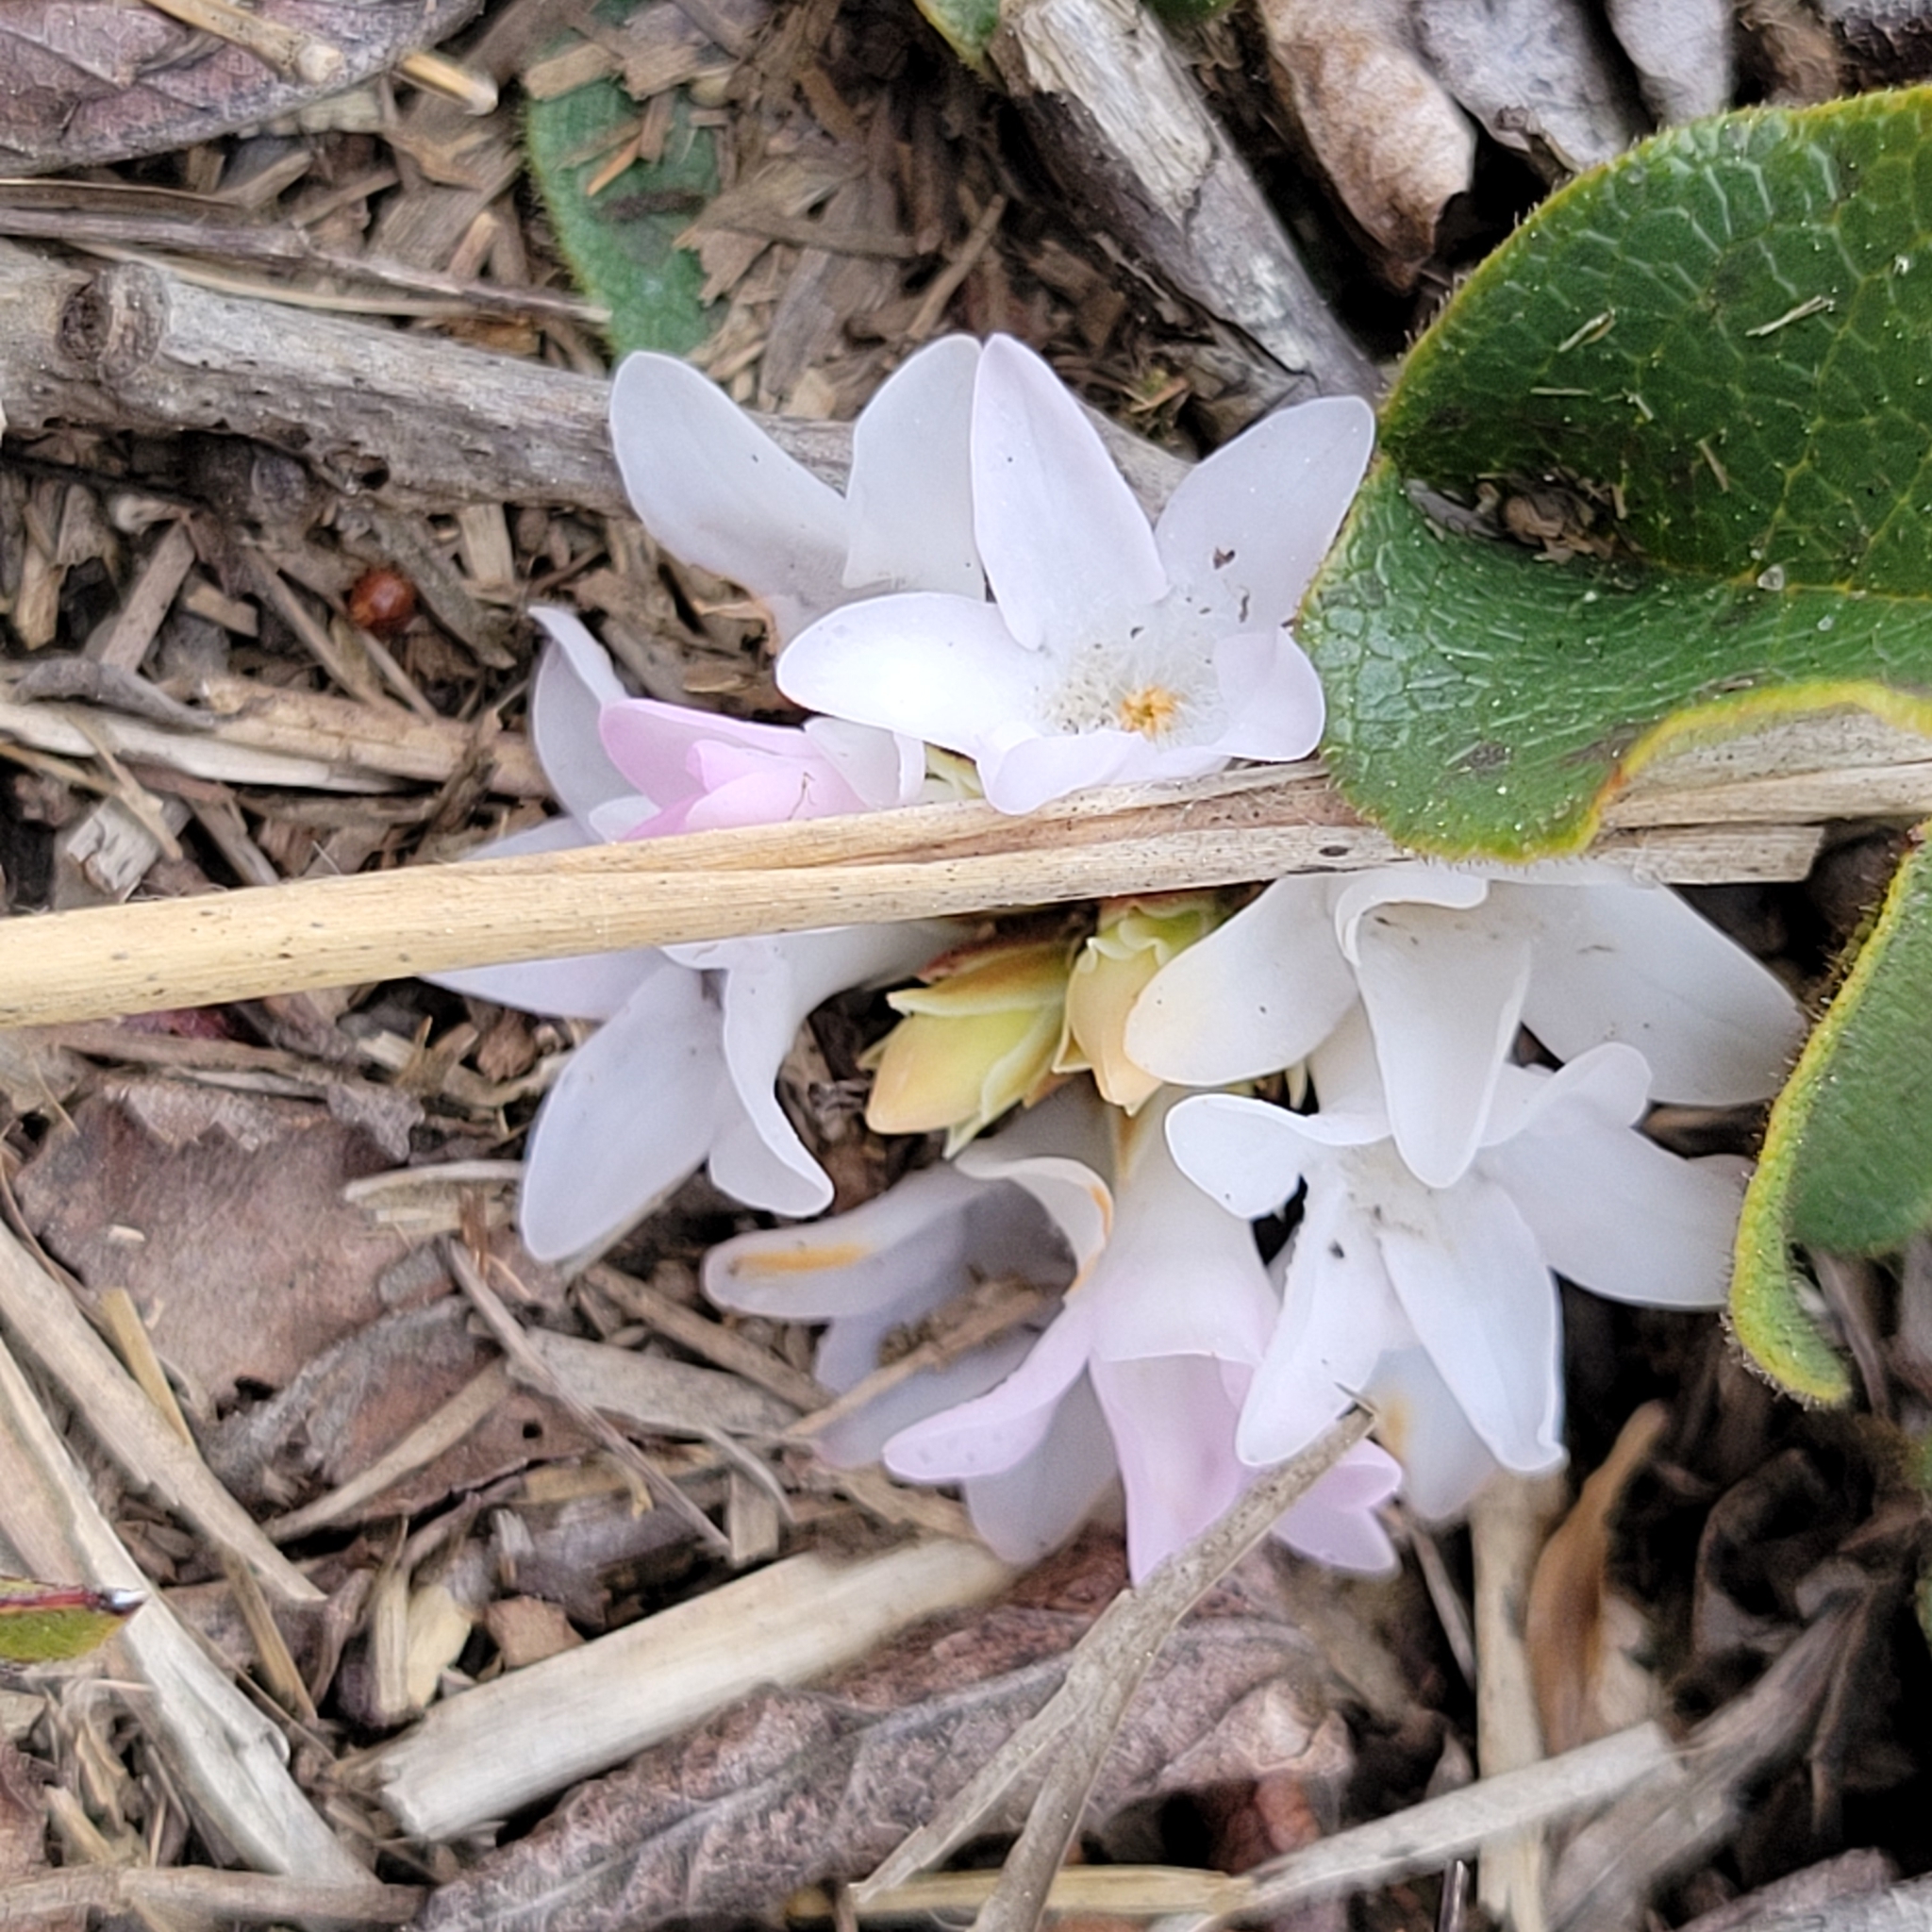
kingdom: Plantae
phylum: Tracheophyta
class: Magnoliopsida
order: Ericales
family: Ericaceae
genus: Epigaea
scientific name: Epigaea repens
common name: Gravelroot
